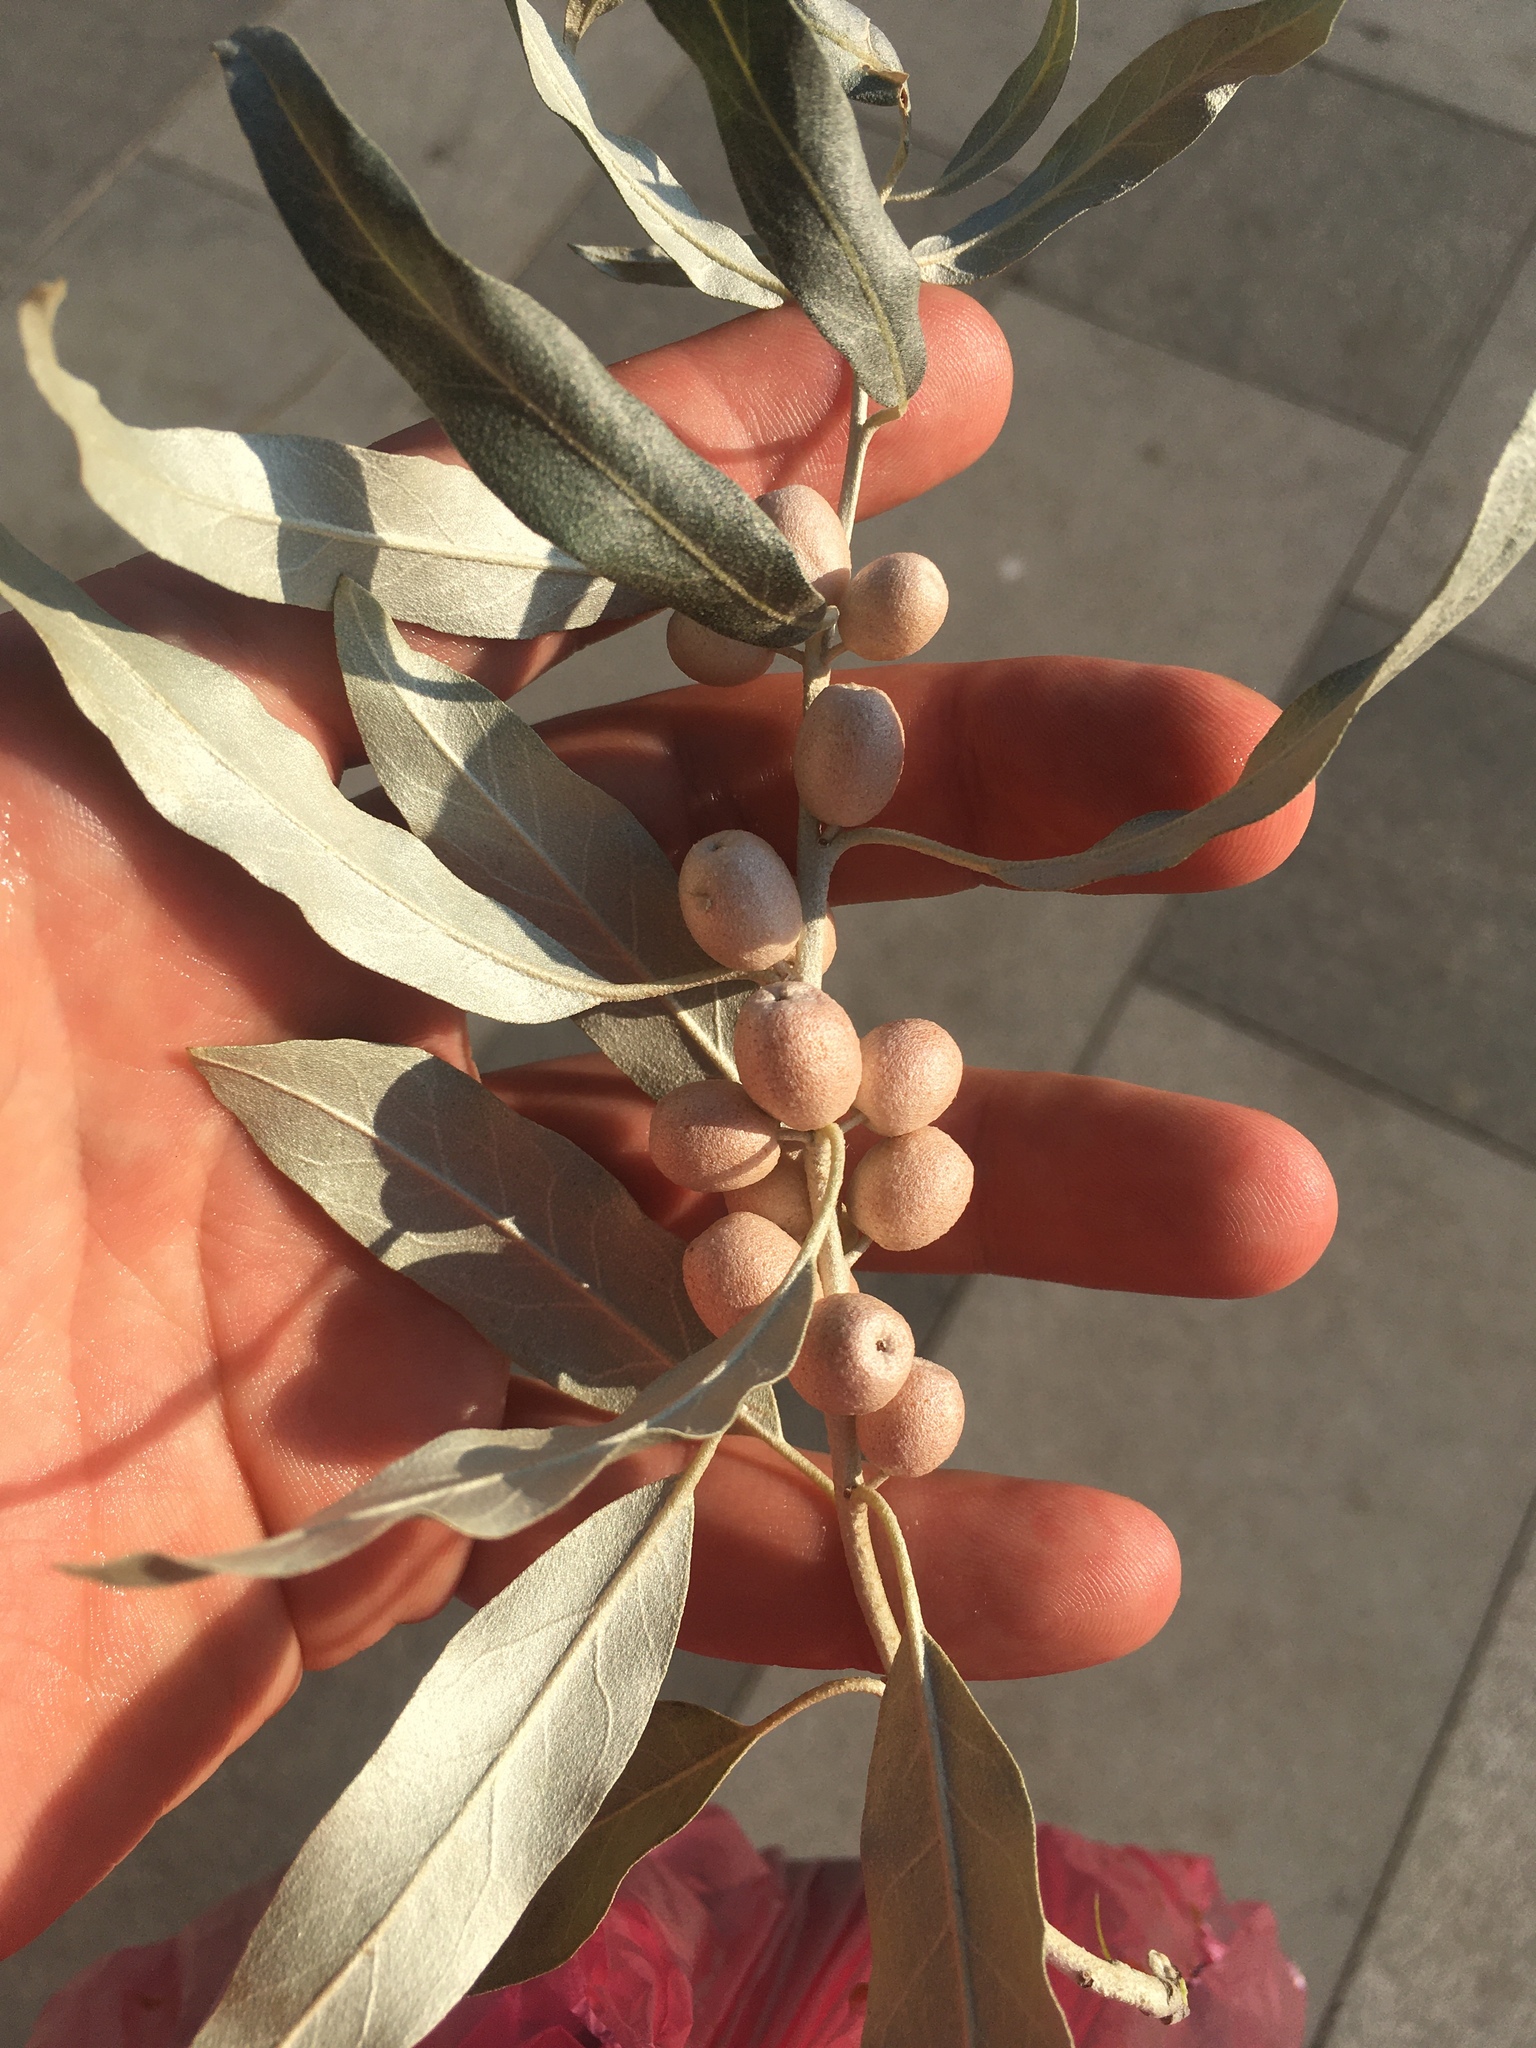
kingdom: Plantae
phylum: Tracheophyta
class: Magnoliopsida
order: Rosales
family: Elaeagnaceae
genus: Elaeagnus
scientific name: Elaeagnus angustifolia
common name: Russian olive
